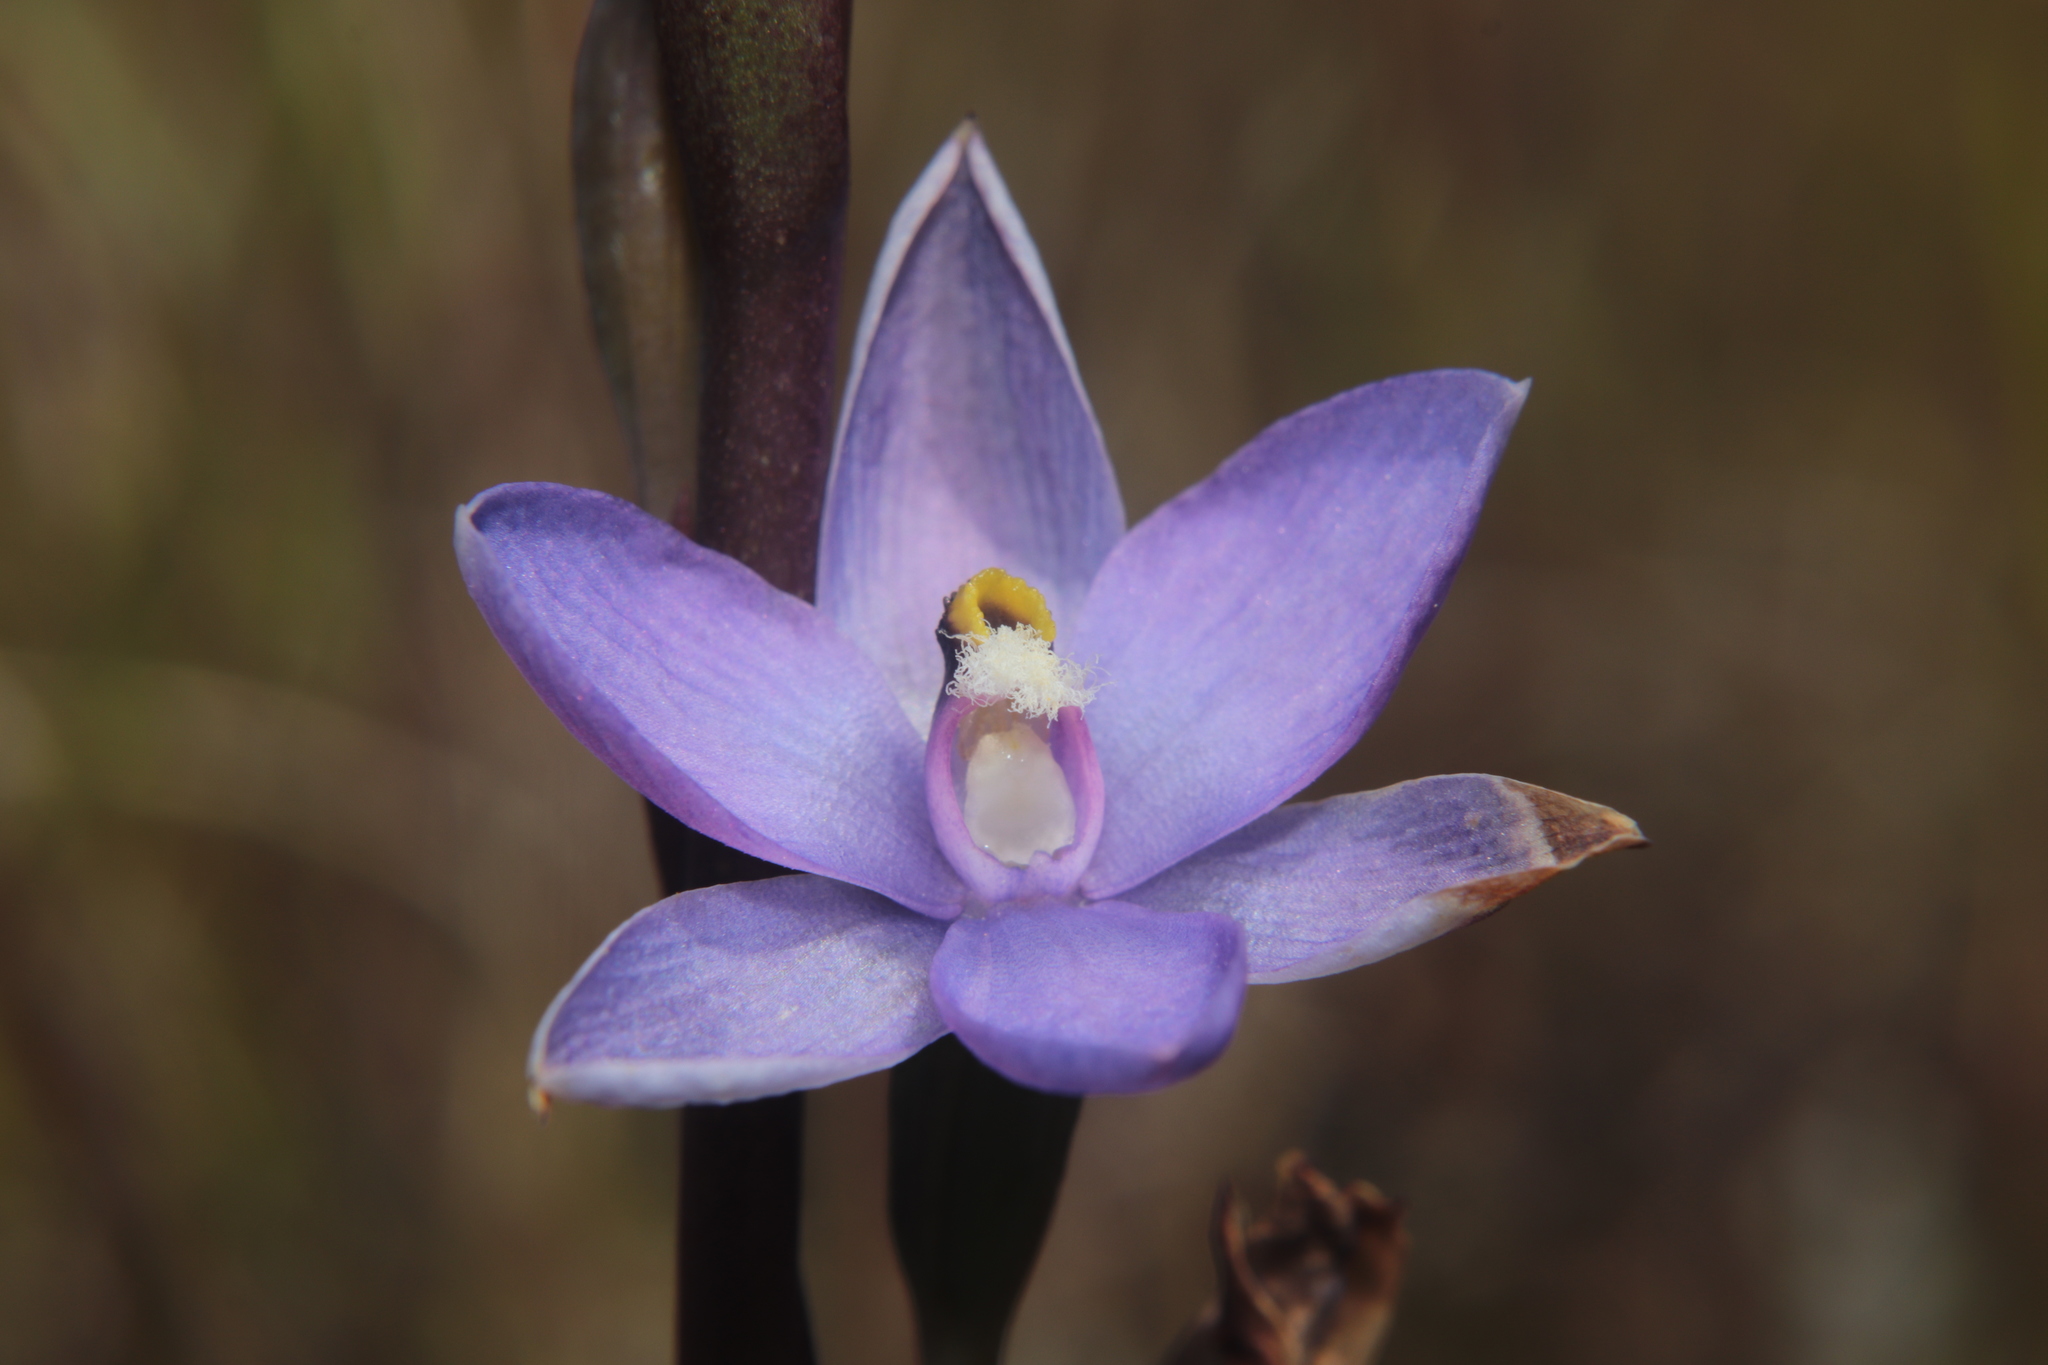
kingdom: Plantae
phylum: Tracheophyta
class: Liliopsida
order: Asparagales
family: Orchidaceae
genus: Thelymitra
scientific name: Thelymitra hatchii
